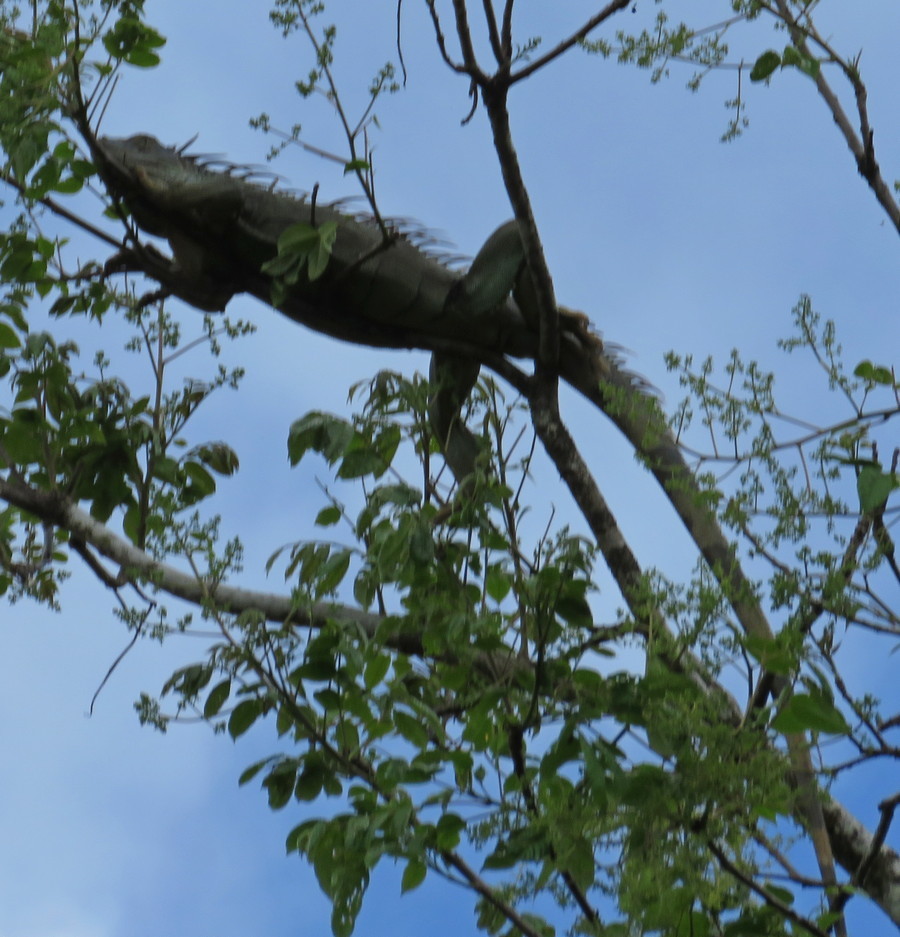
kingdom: Animalia
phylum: Chordata
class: Squamata
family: Iguanidae
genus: Iguana
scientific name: Iguana iguana
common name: Green iguana
